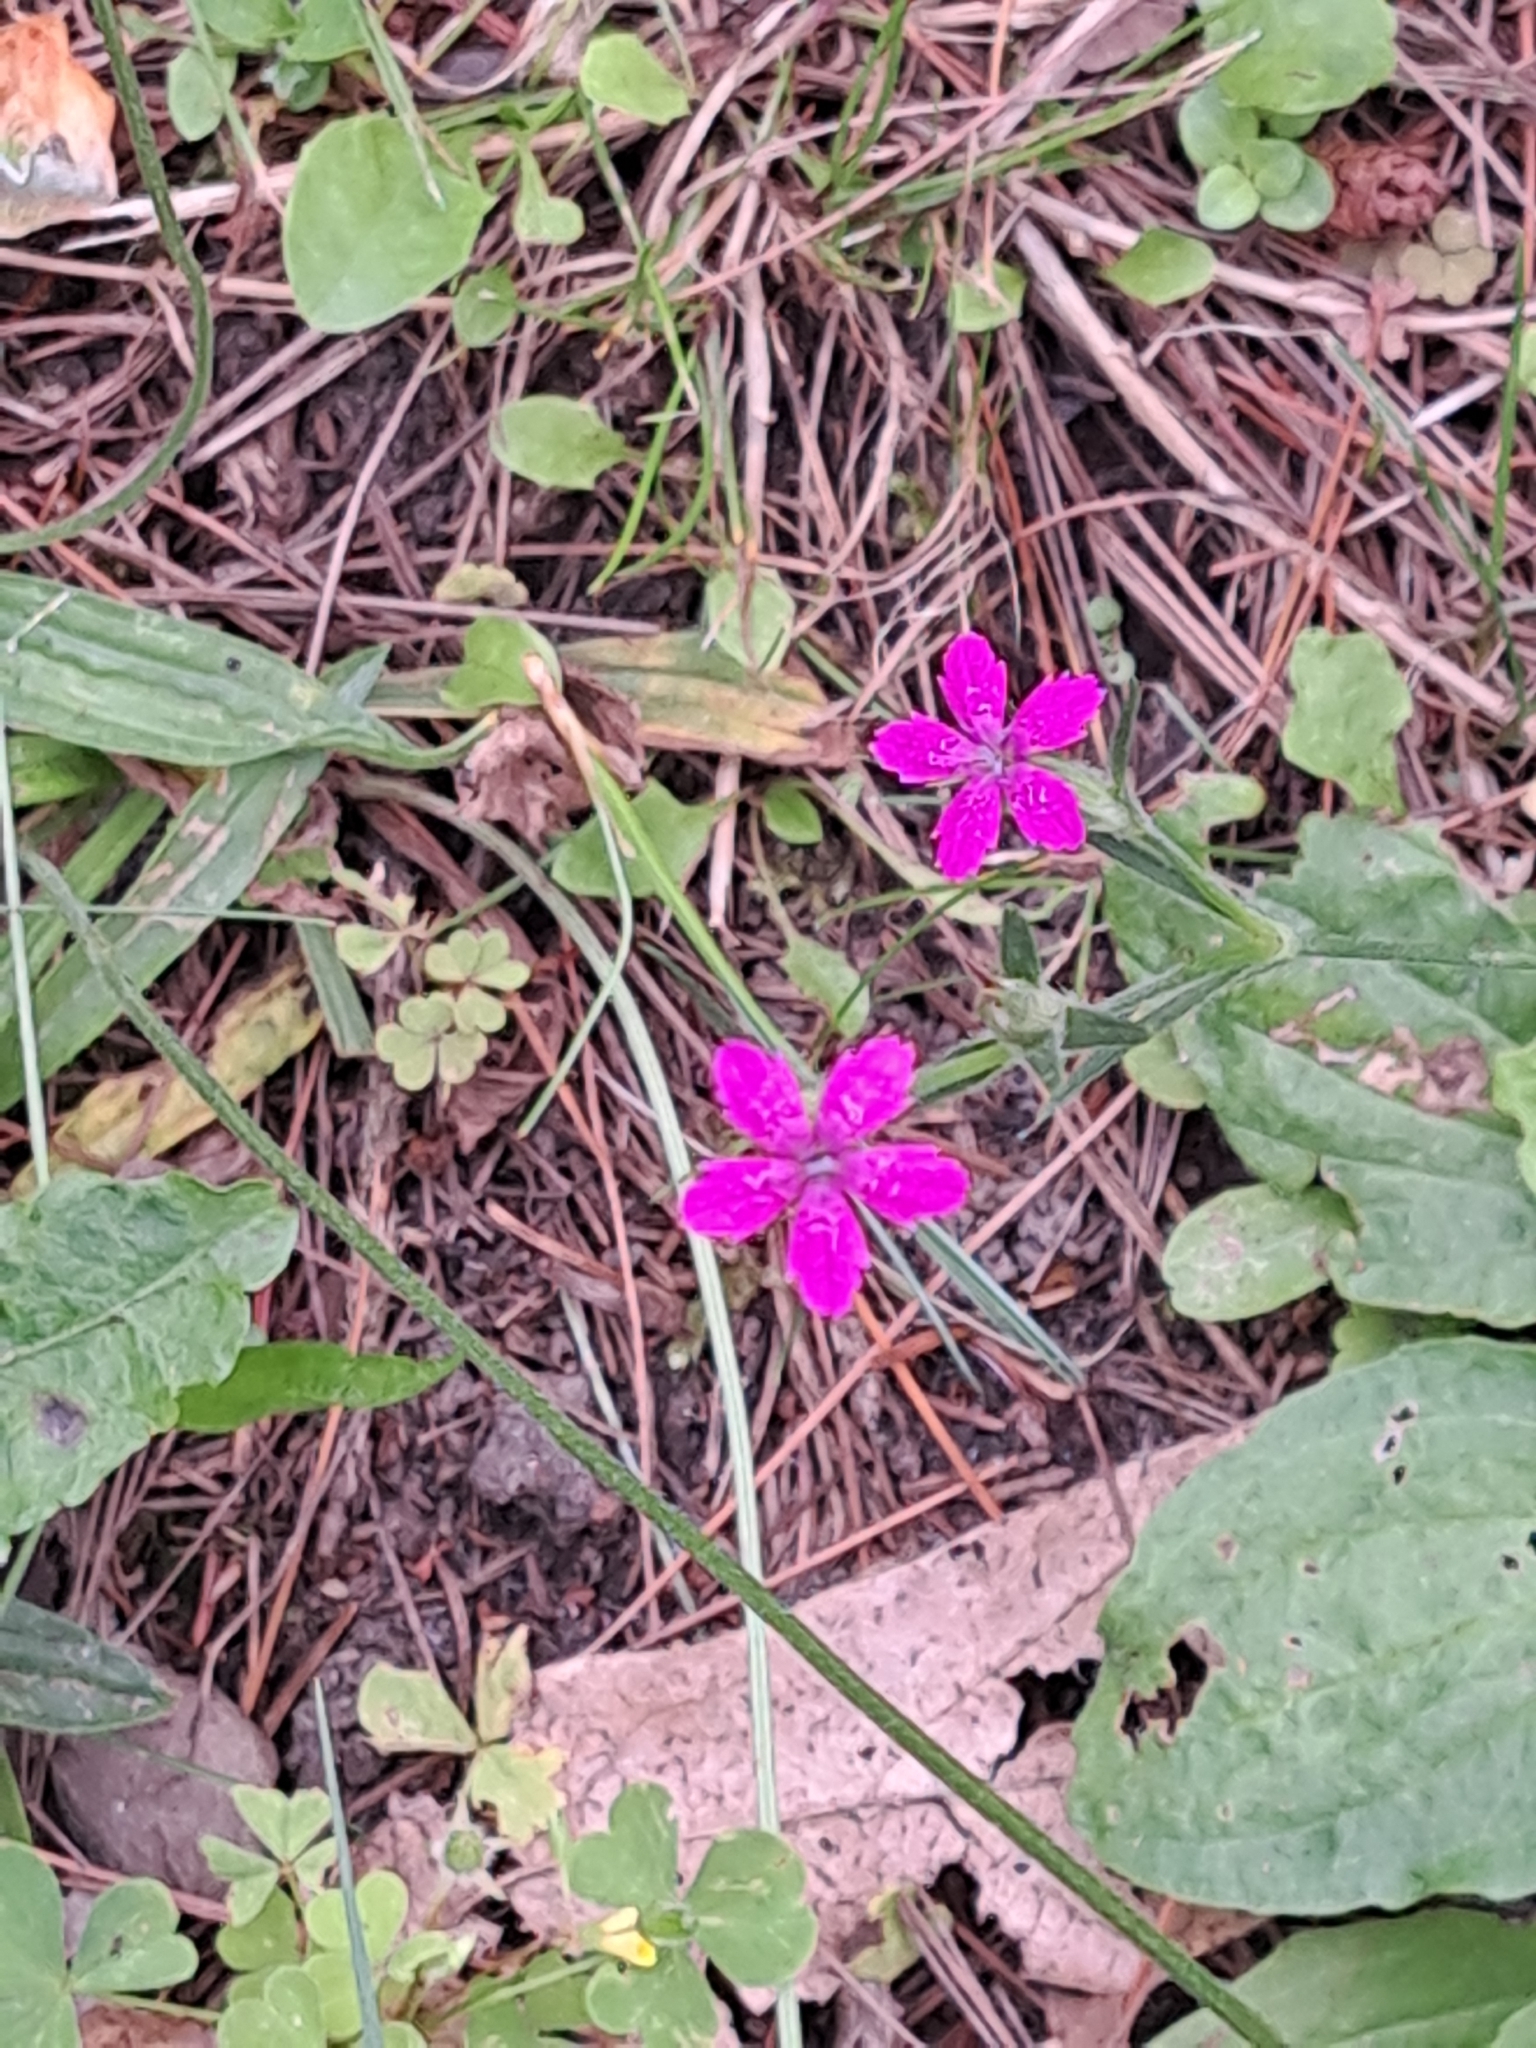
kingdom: Plantae
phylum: Tracheophyta
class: Magnoliopsida
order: Caryophyllales
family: Caryophyllaceae
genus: Dianthus
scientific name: Dianthus armeria
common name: Deptford pink
